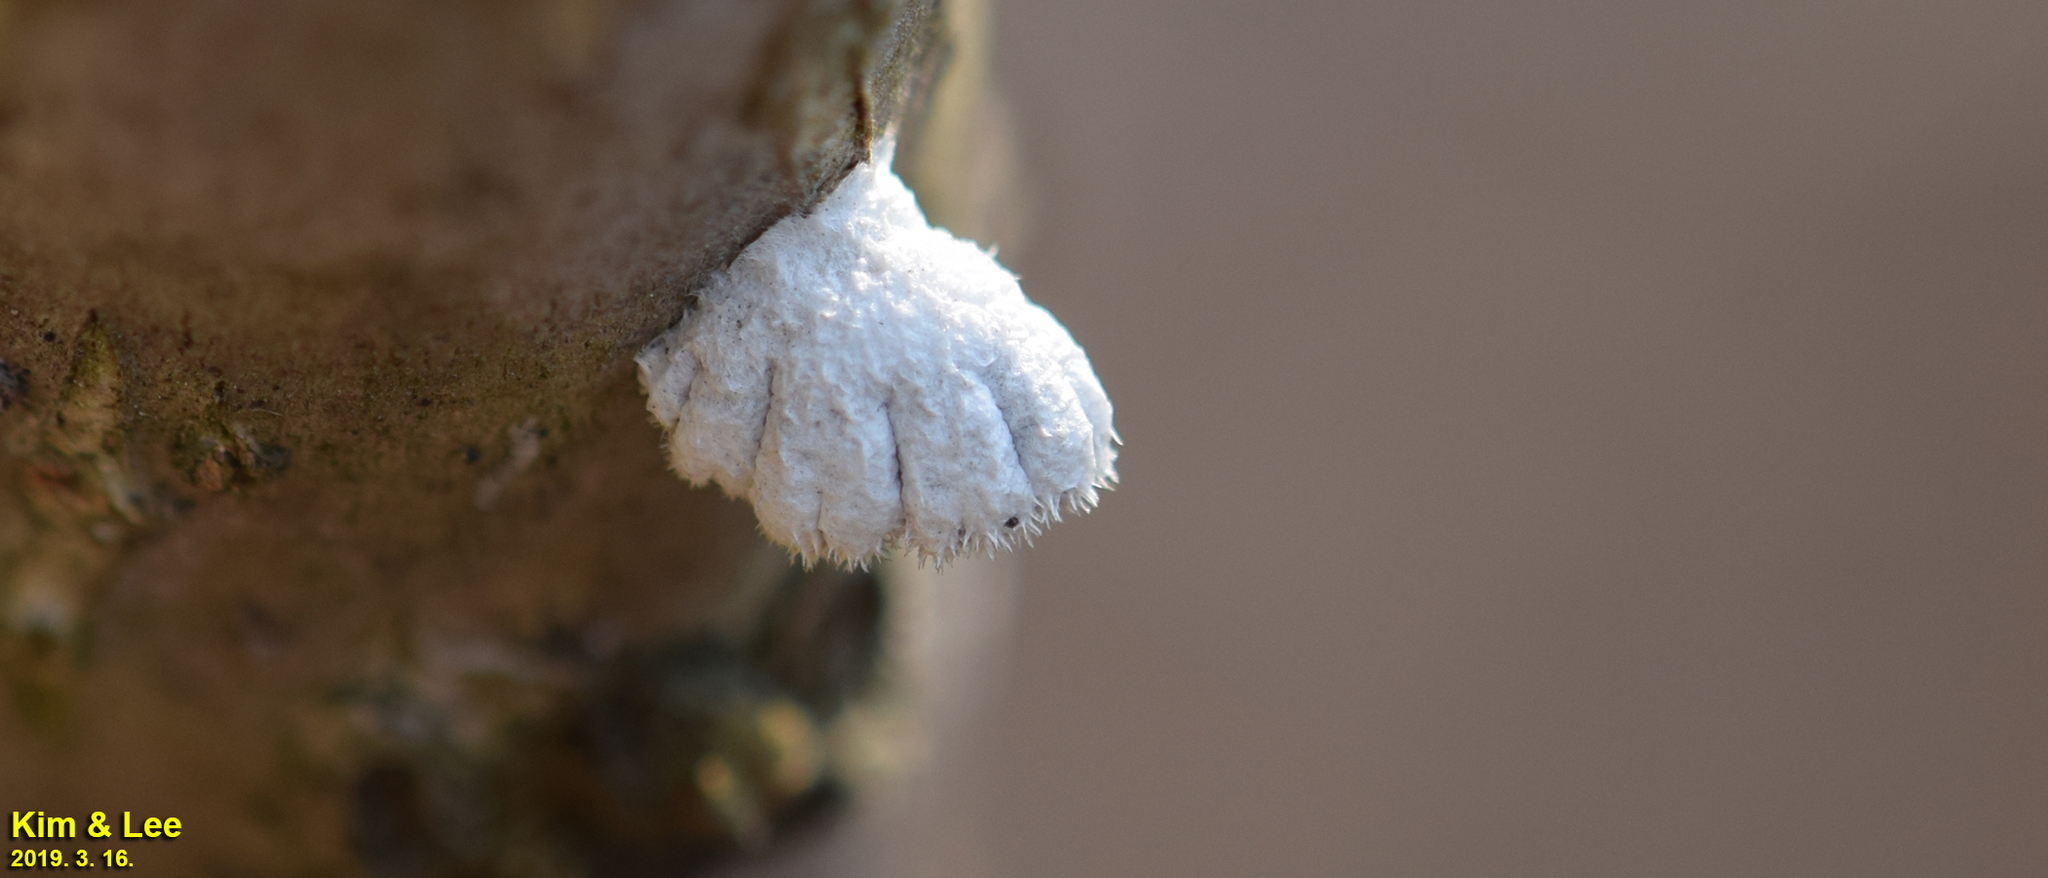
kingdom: Fungi
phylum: Basidiomycota
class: Agaricomycetes
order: Agaricales
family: Schizophyllaceae
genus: Schizophyllum
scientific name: Schizophyllum commune
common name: Common porecrust
